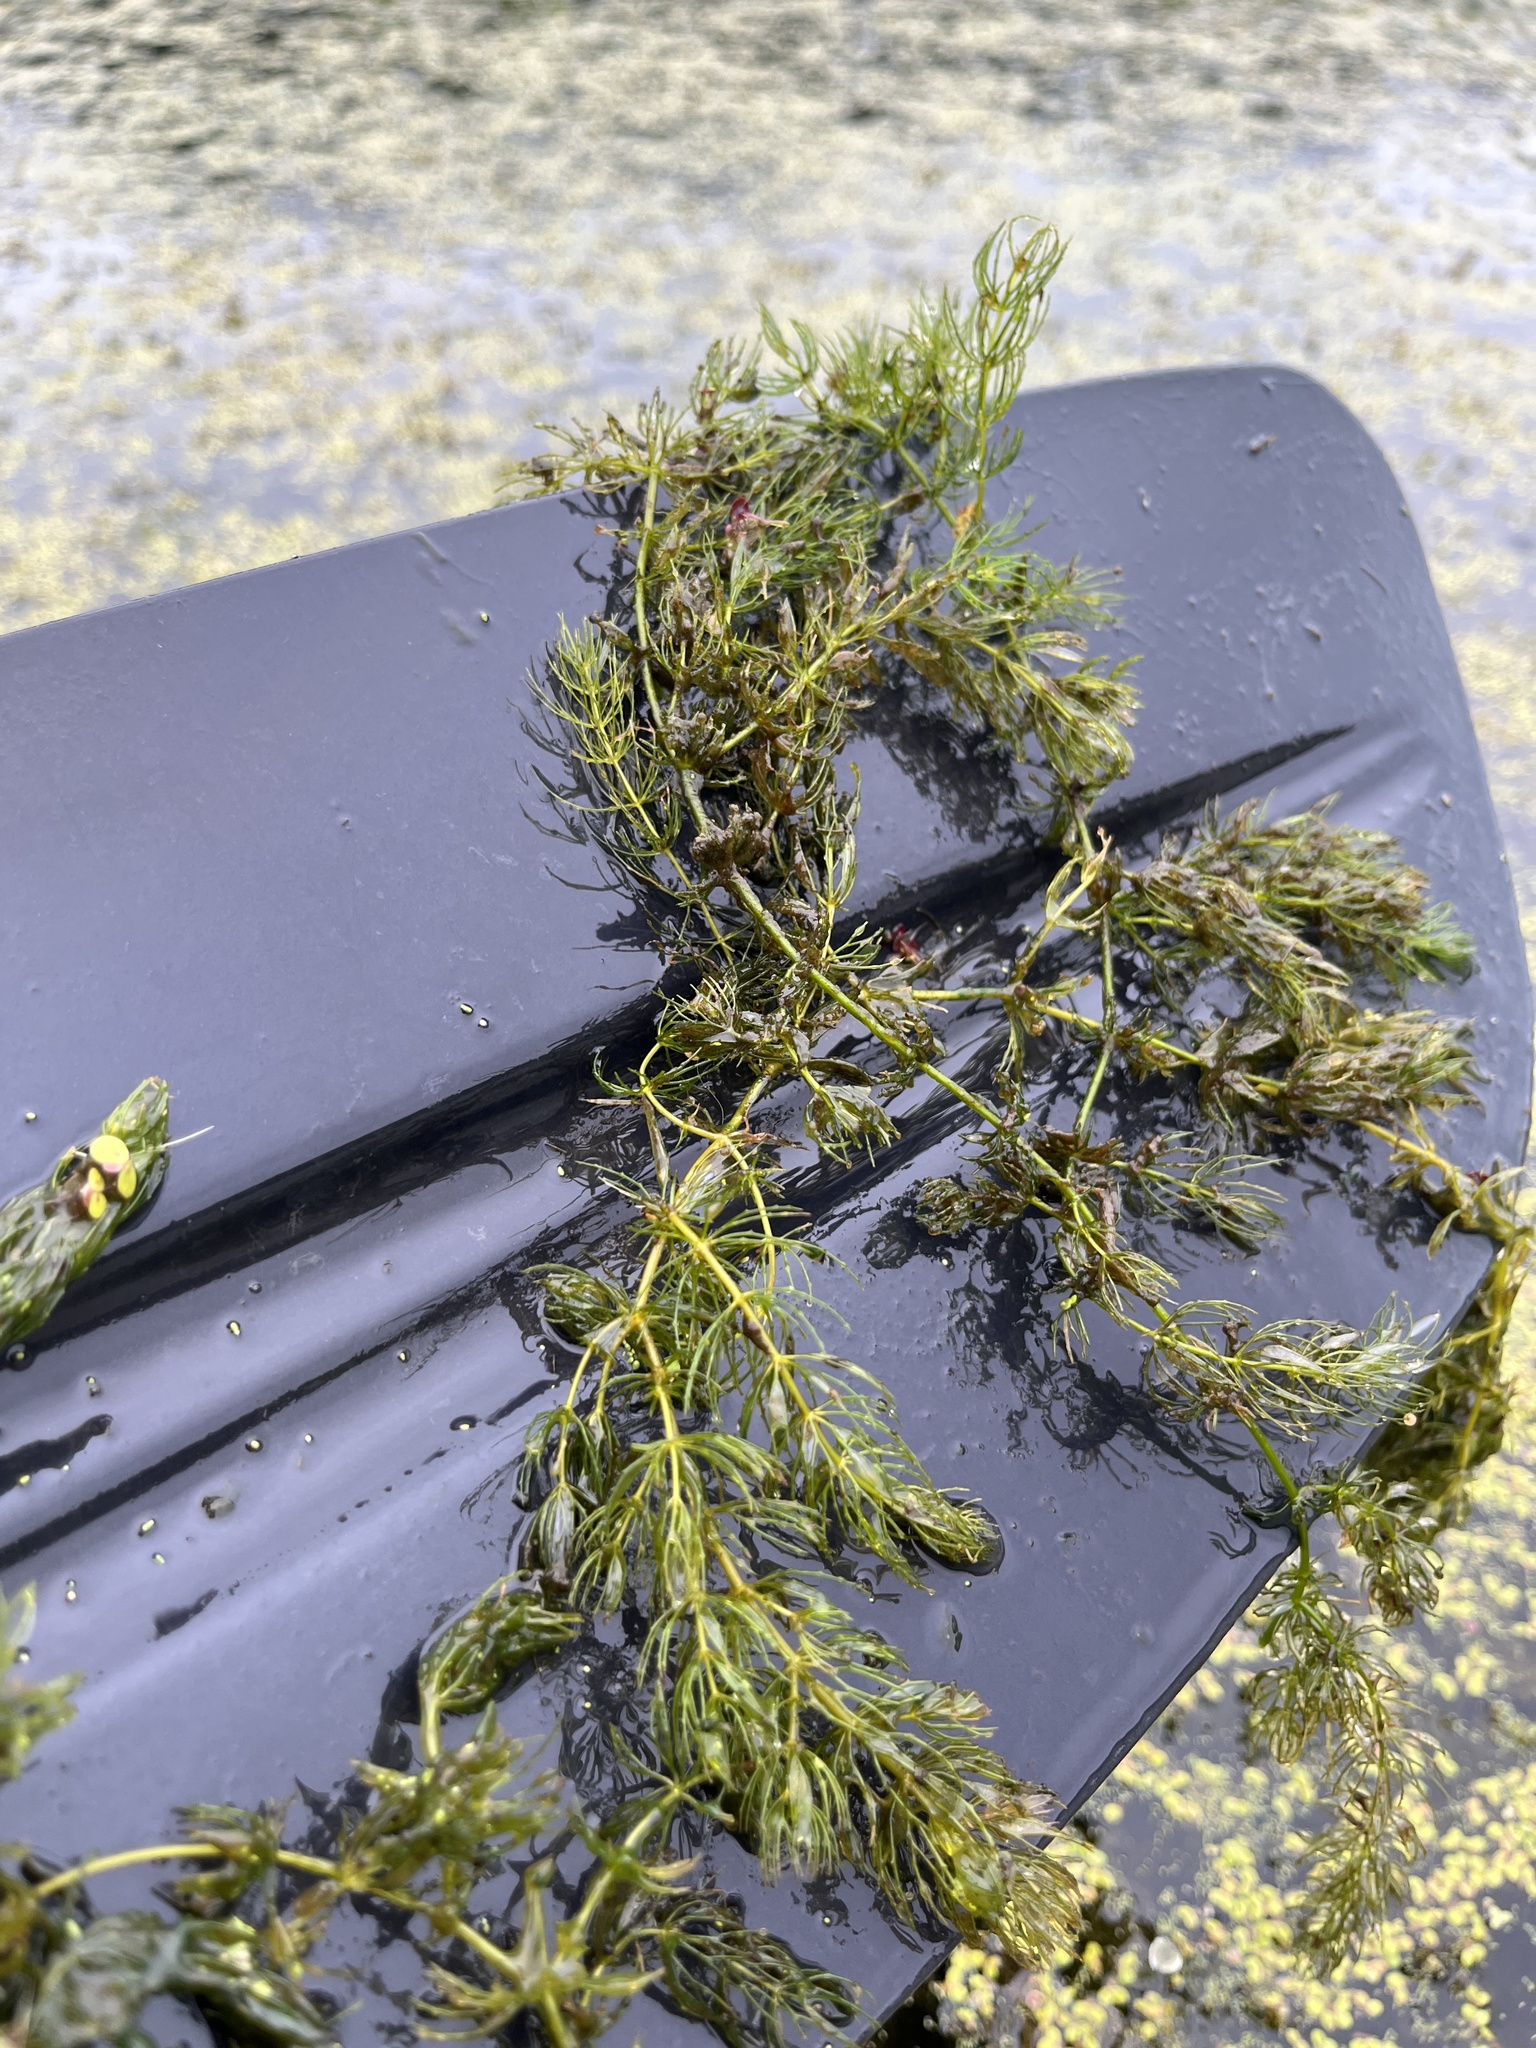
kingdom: Plantae
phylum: Tracheophyta
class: Magnoliopsida
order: Ceratophyllales
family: Ceratophyllaceae
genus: Ceratophyllum
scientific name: Ceratophyllum demersum
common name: Rigid hornwort
